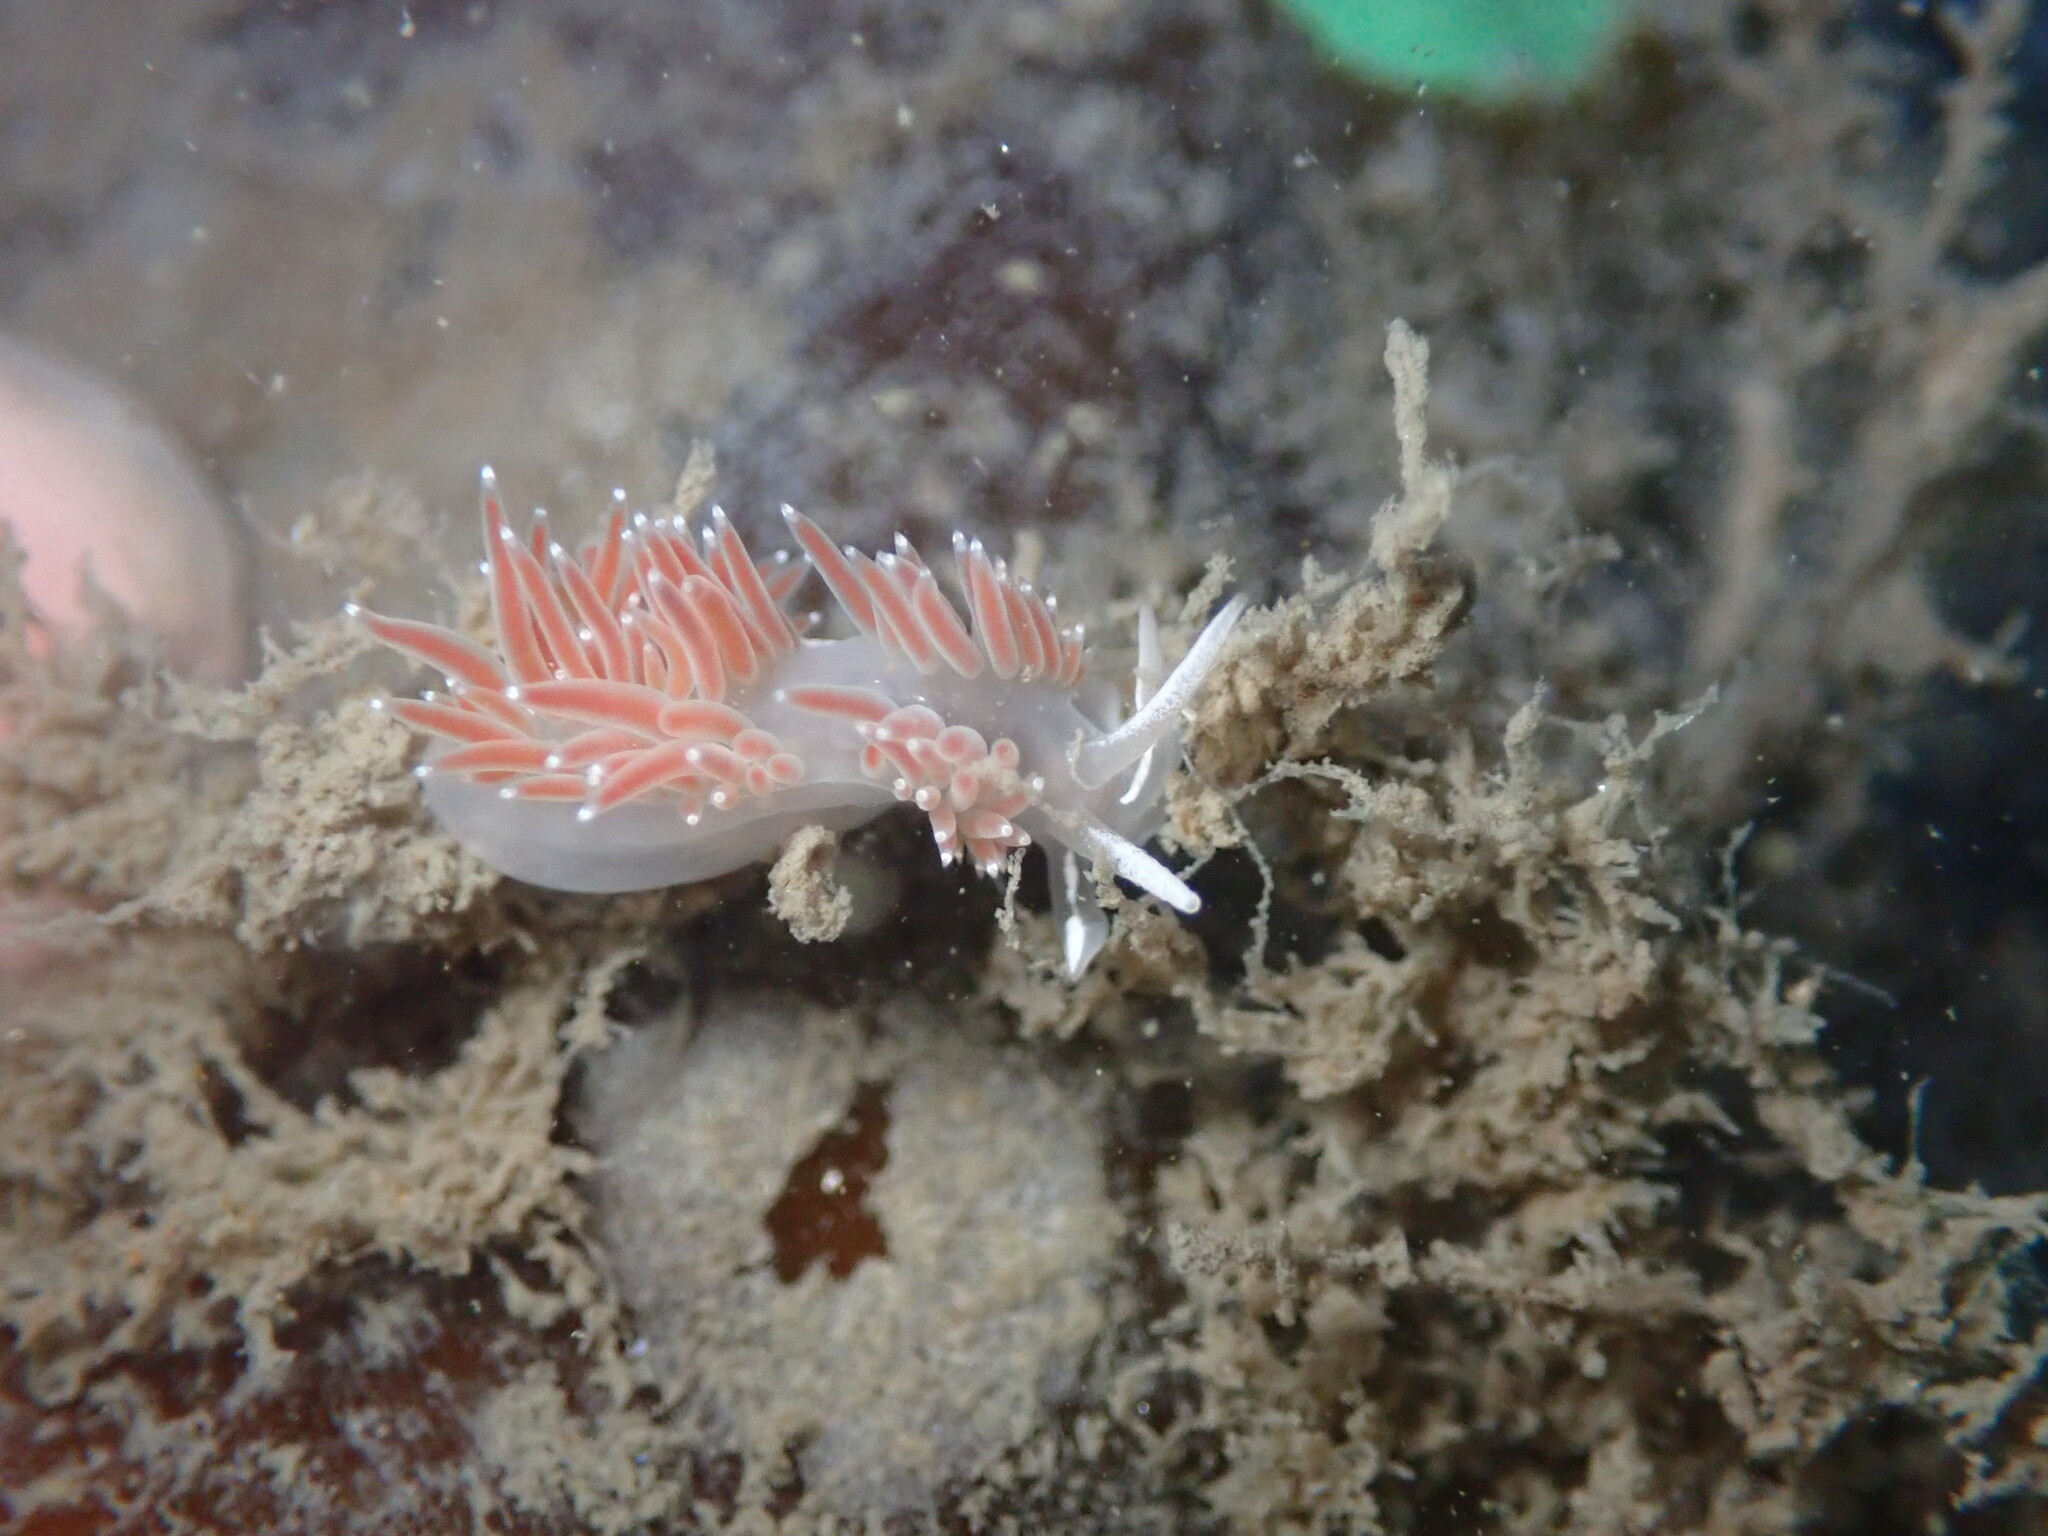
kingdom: Animalia
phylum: Mollusca
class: Gastropoda
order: Nudibranchia
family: Coryphellidae
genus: Coryphella
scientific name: Coryphella verrucosa
